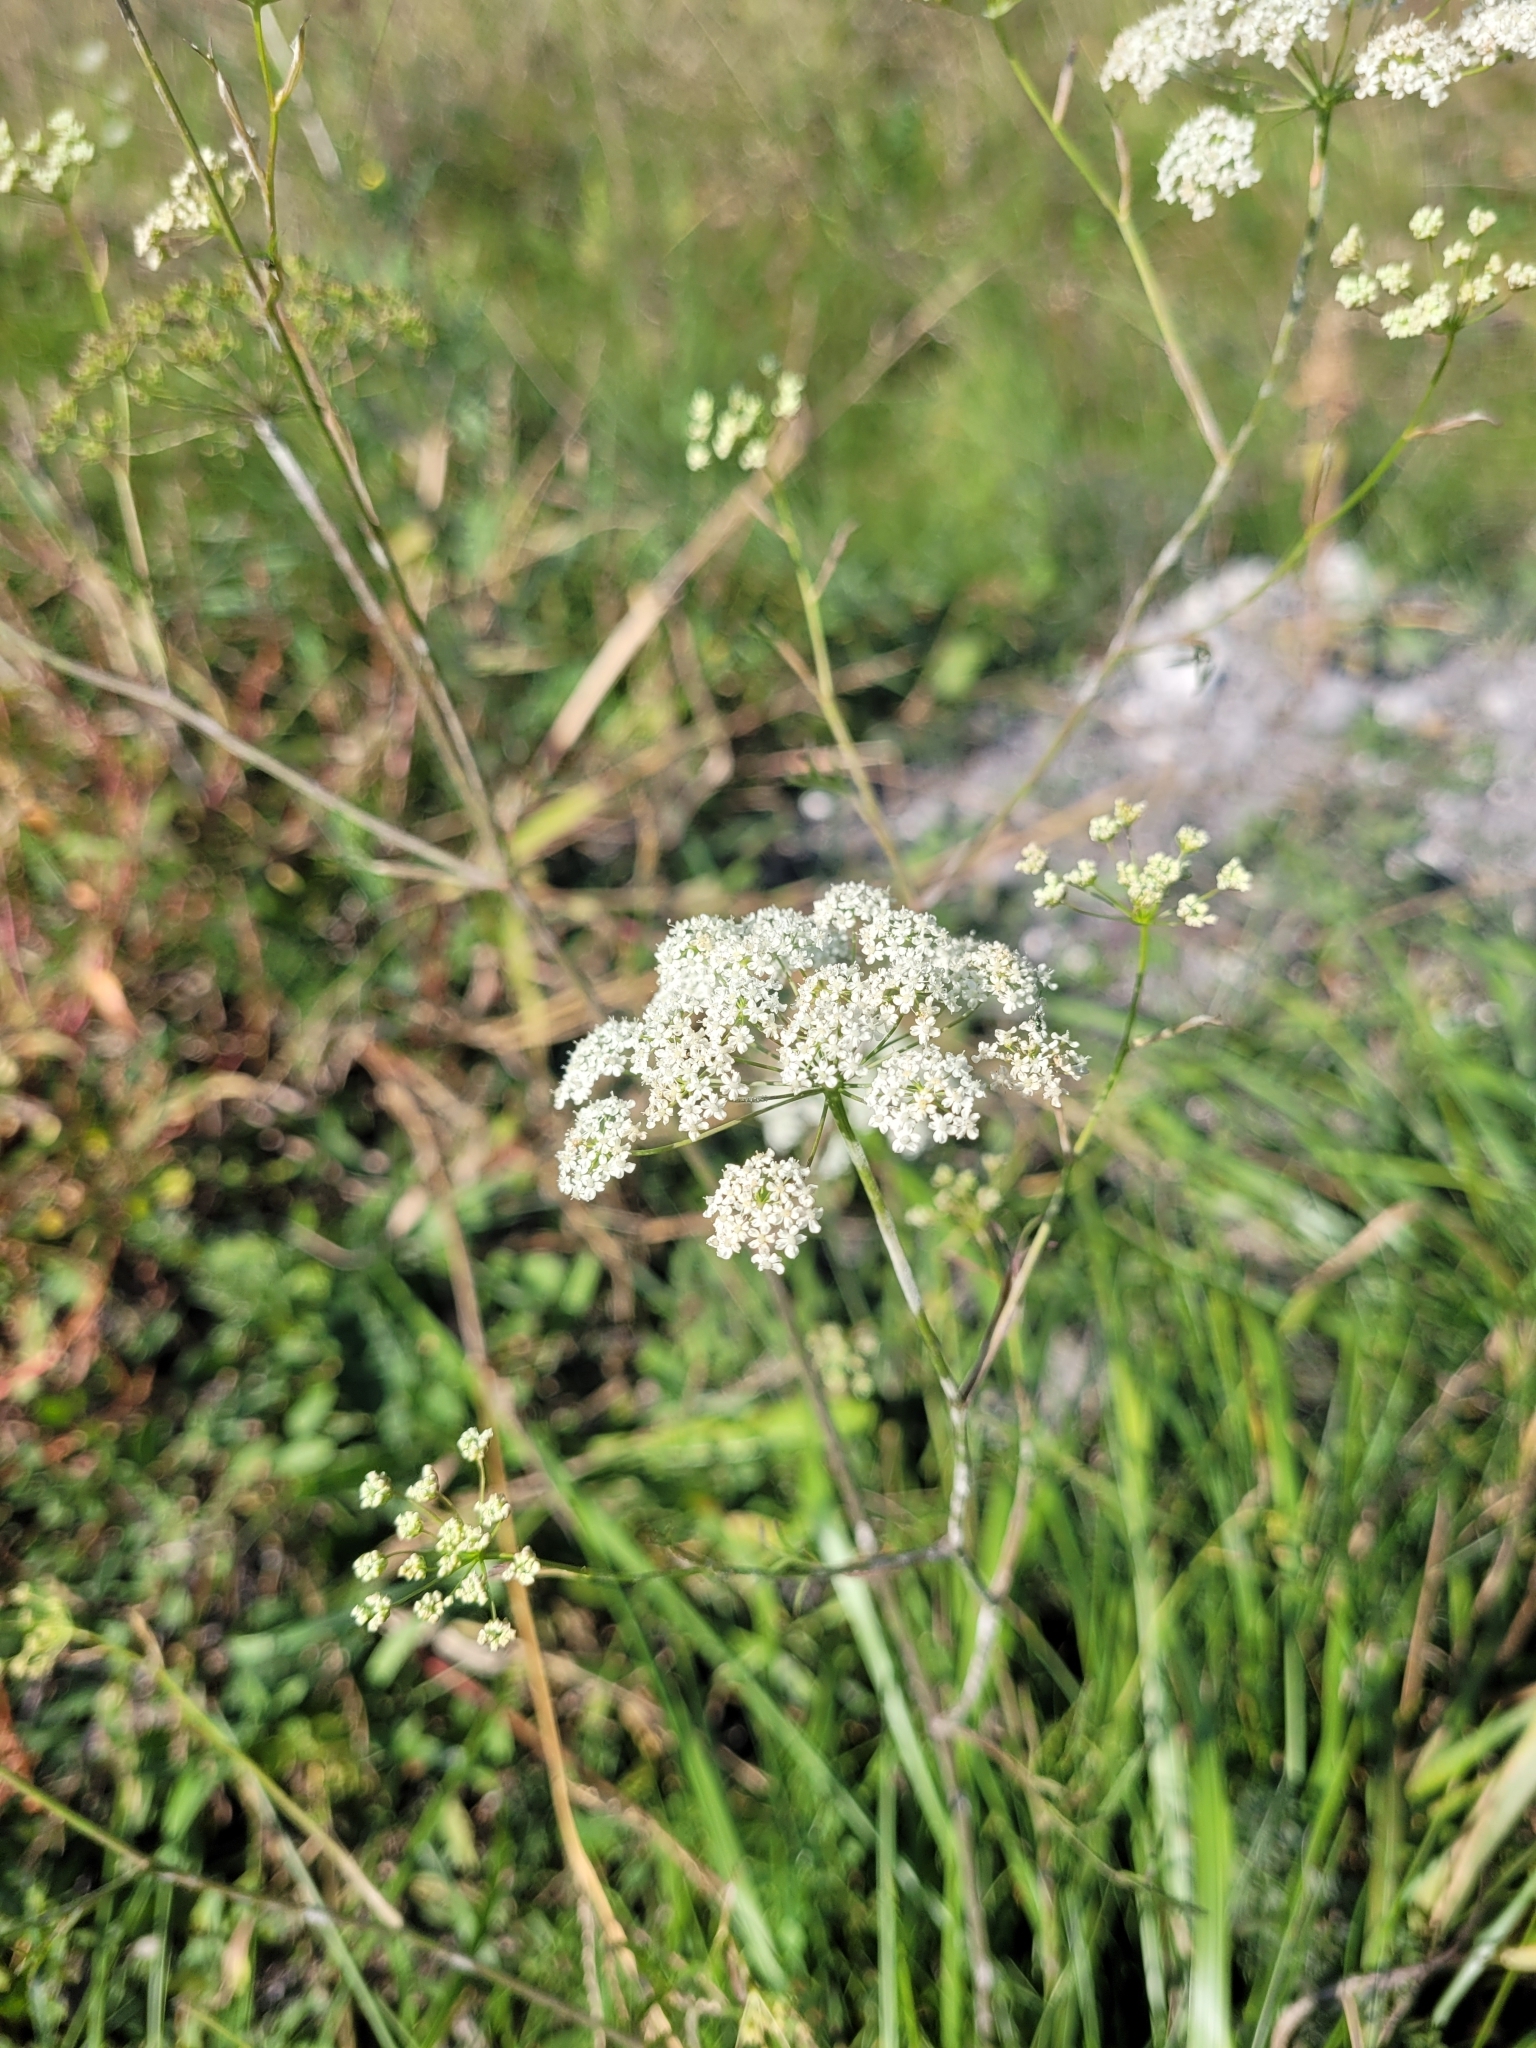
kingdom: Plantae
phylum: Tracheophyta
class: Magnoliopsida
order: Apiales
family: Apiaceae
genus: Pimpinella
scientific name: Pimpinella saxifraga
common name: Burnet-saxifrage
